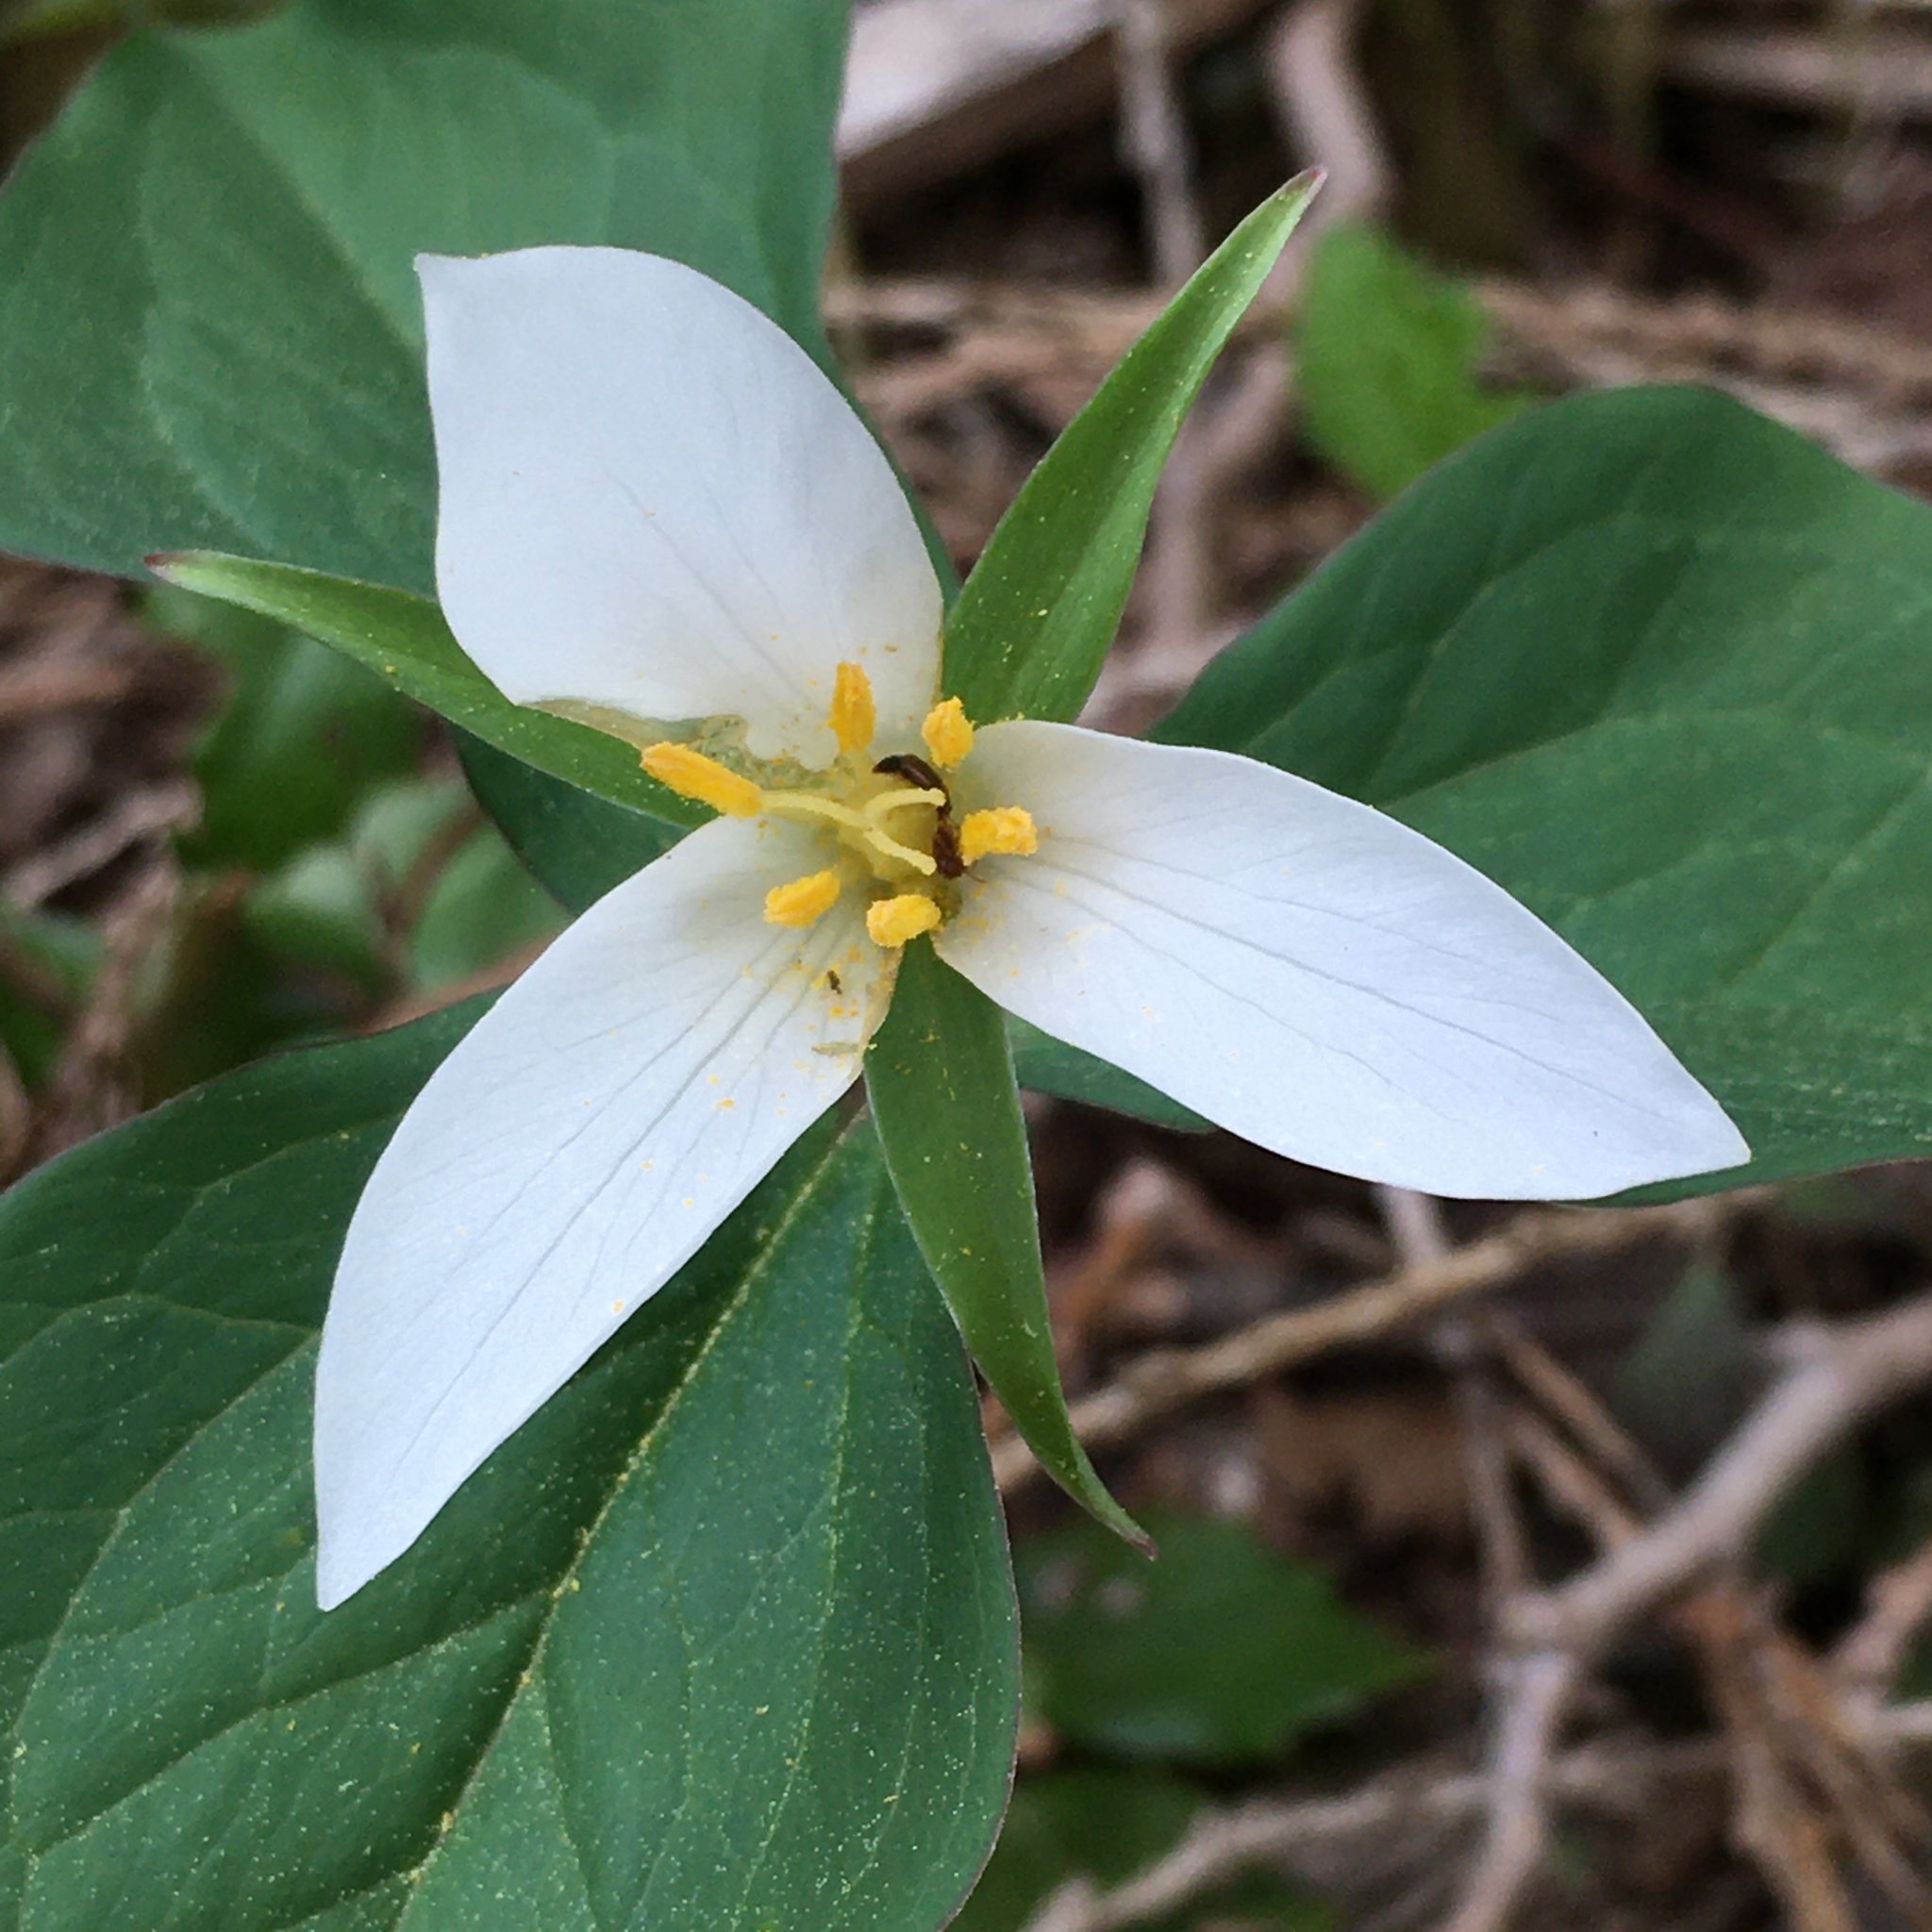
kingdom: Plantae
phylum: Tracheophyta
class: Liliopsida
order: Liliales
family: Melanthiaceae
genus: Trillium
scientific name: Trillium ovatum
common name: Pacific trillium
